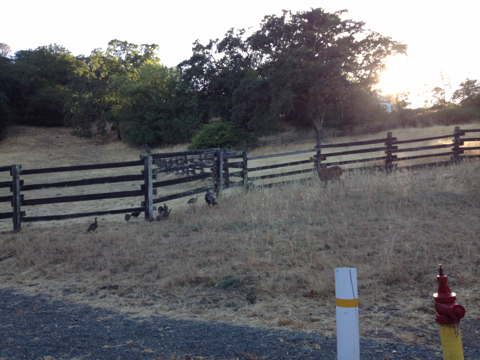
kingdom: Animalia
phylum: Chordata
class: Aves
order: Galliformes
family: Phasianidae
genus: Meleagris
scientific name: Meleagris gallopavo
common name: Wild turkey
